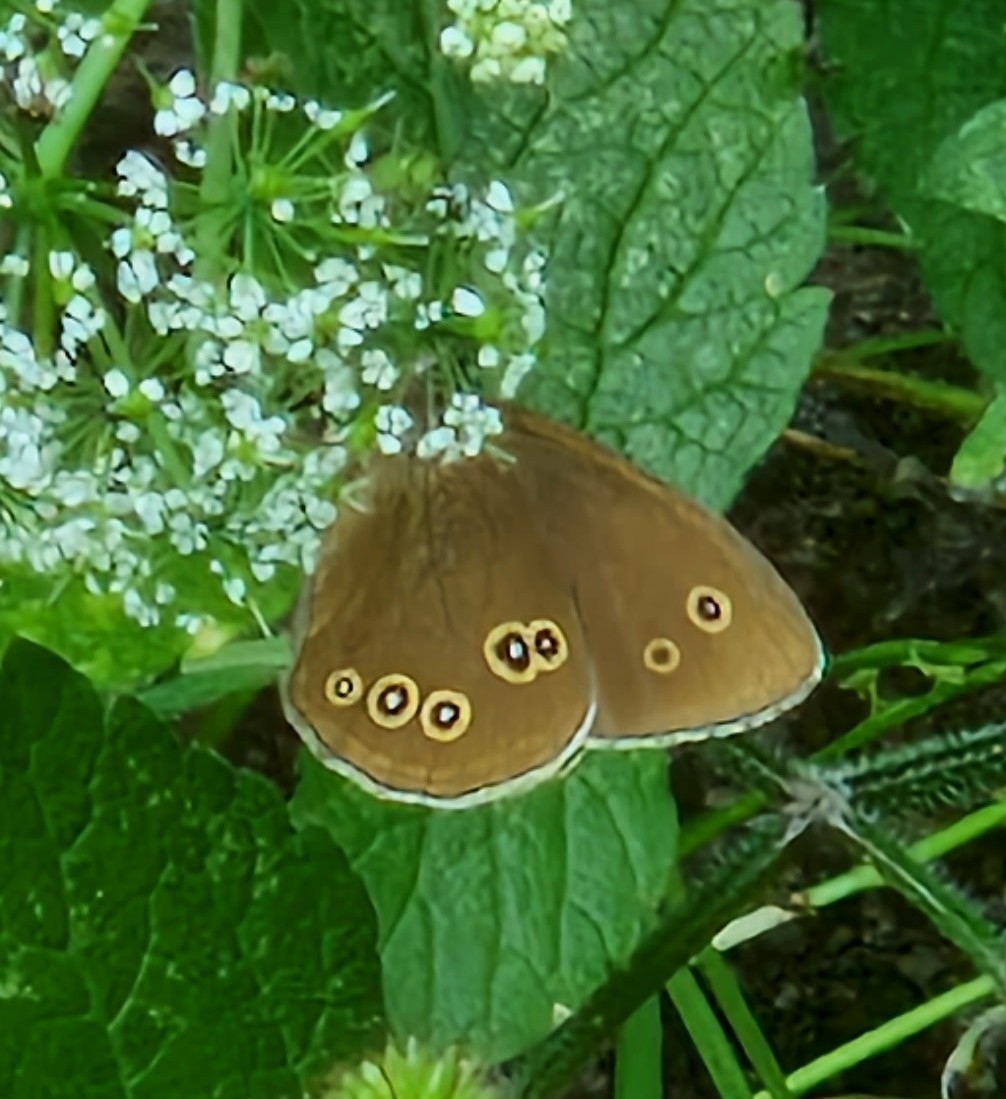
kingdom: Animalia
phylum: Arthropoda
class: Insecta
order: Lepidoptera
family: Nymphalidae
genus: Aphantopus
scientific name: Aphantopus hyperantus
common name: Ringlet
